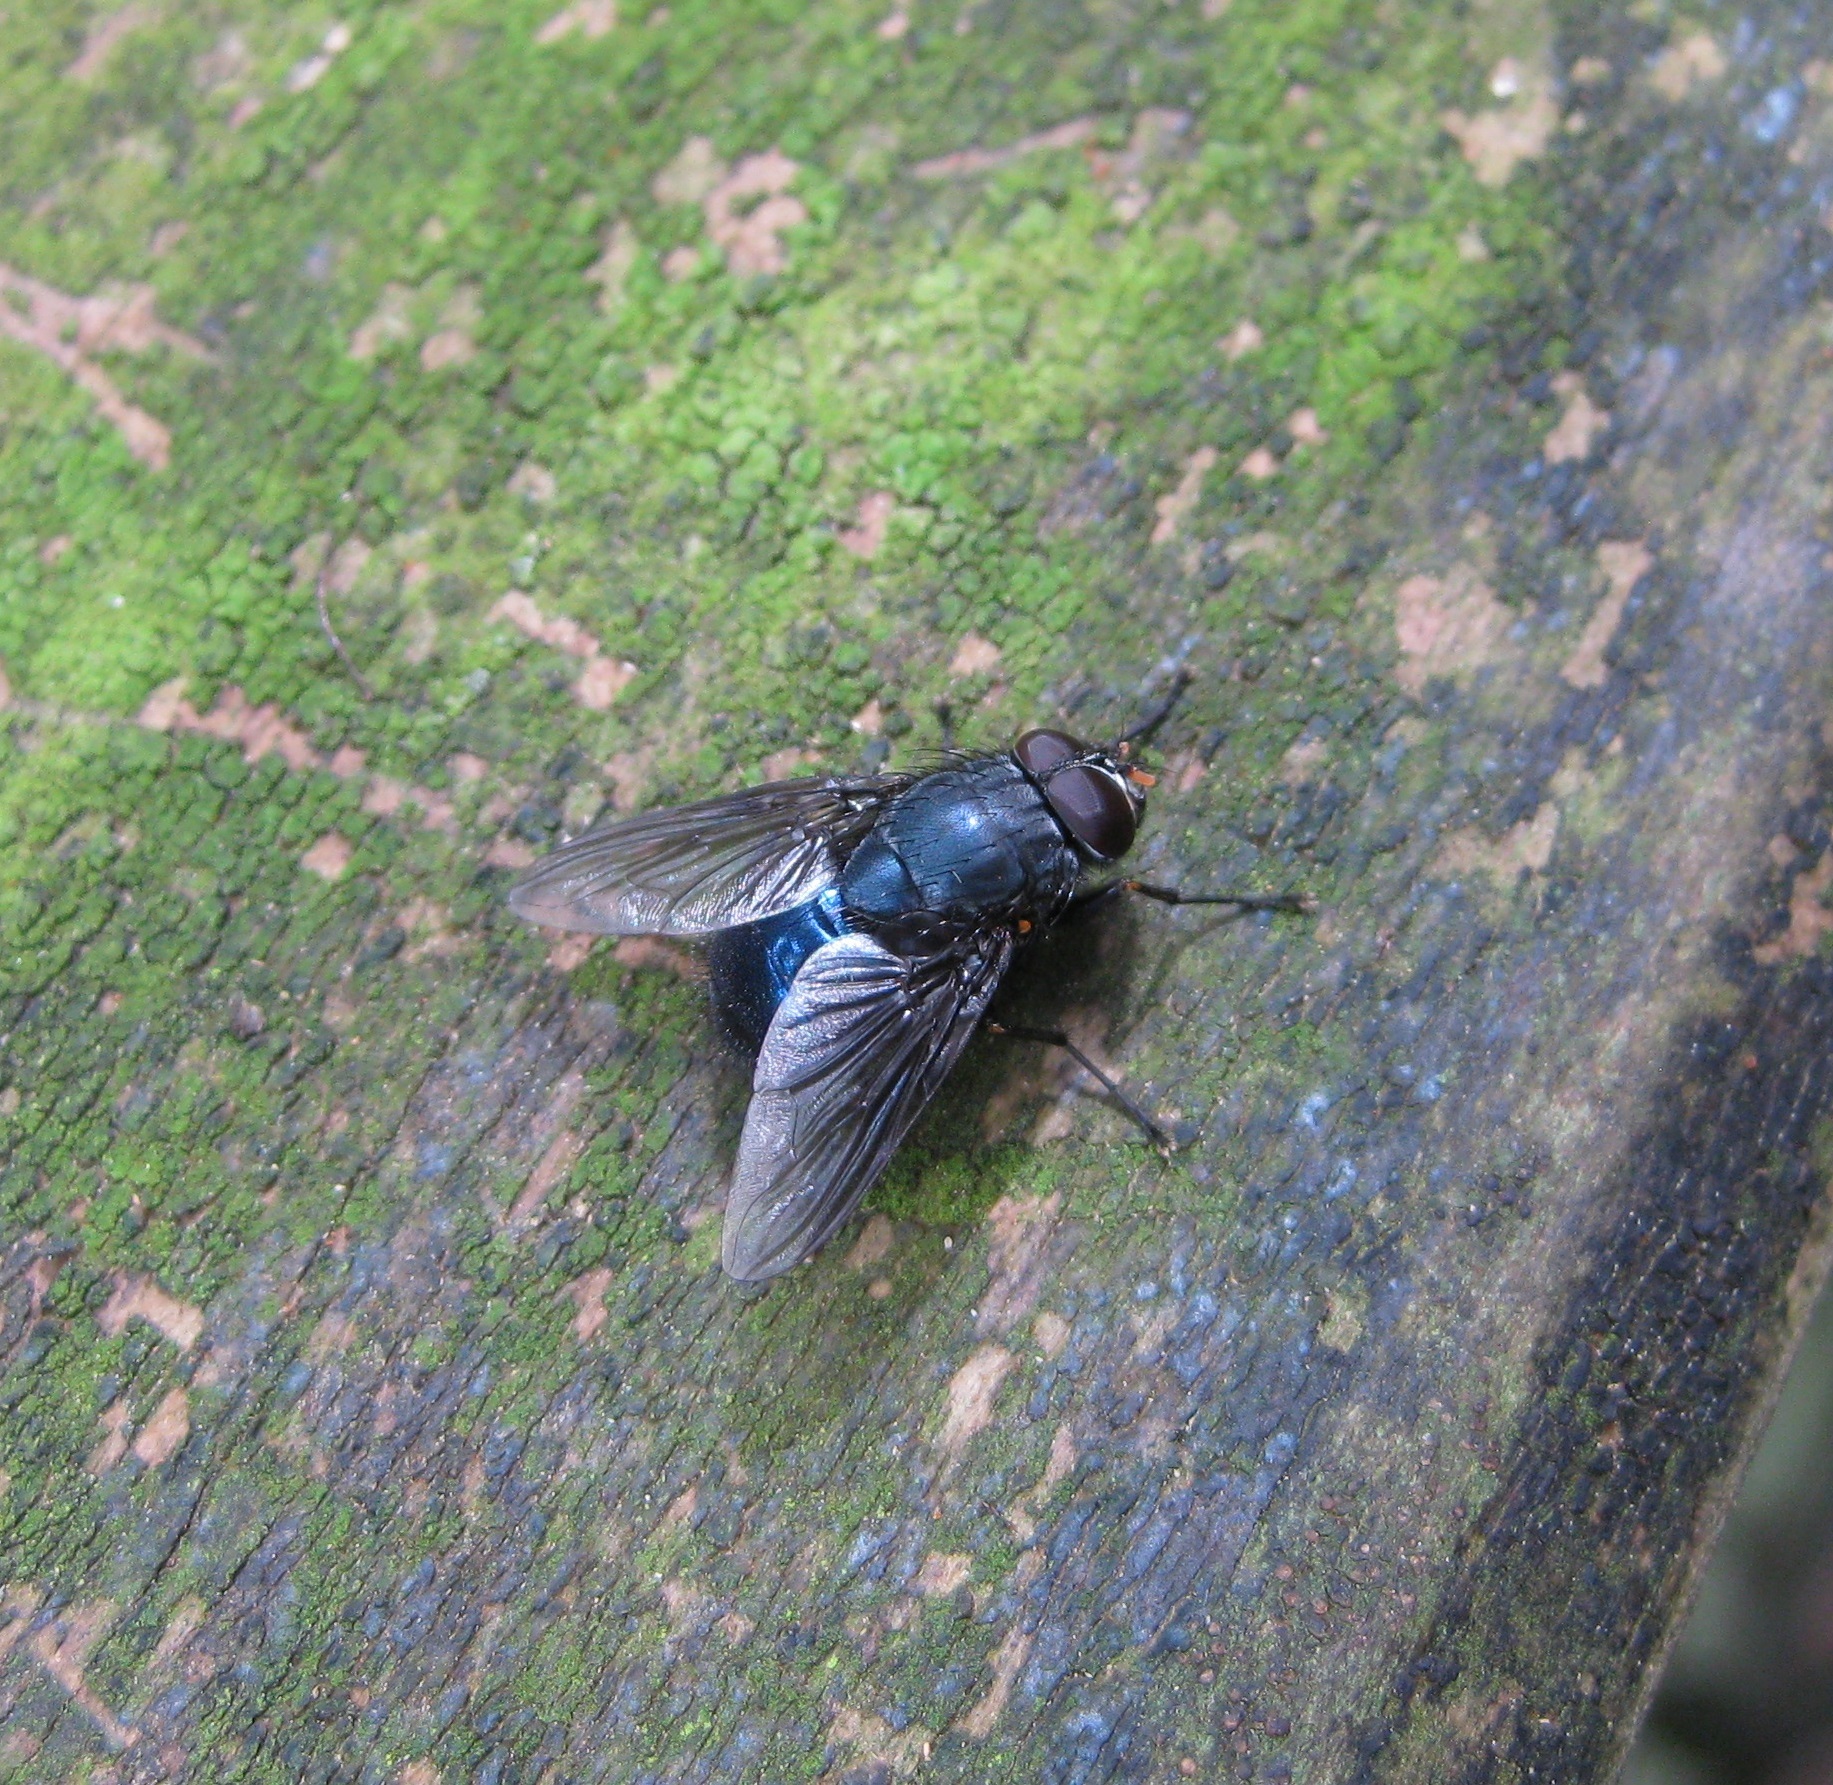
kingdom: Animalia
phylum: Arthropoda
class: Insecta
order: Diptera
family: Muscidae
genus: Calliphoroides
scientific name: Calliphoroides antennatis
